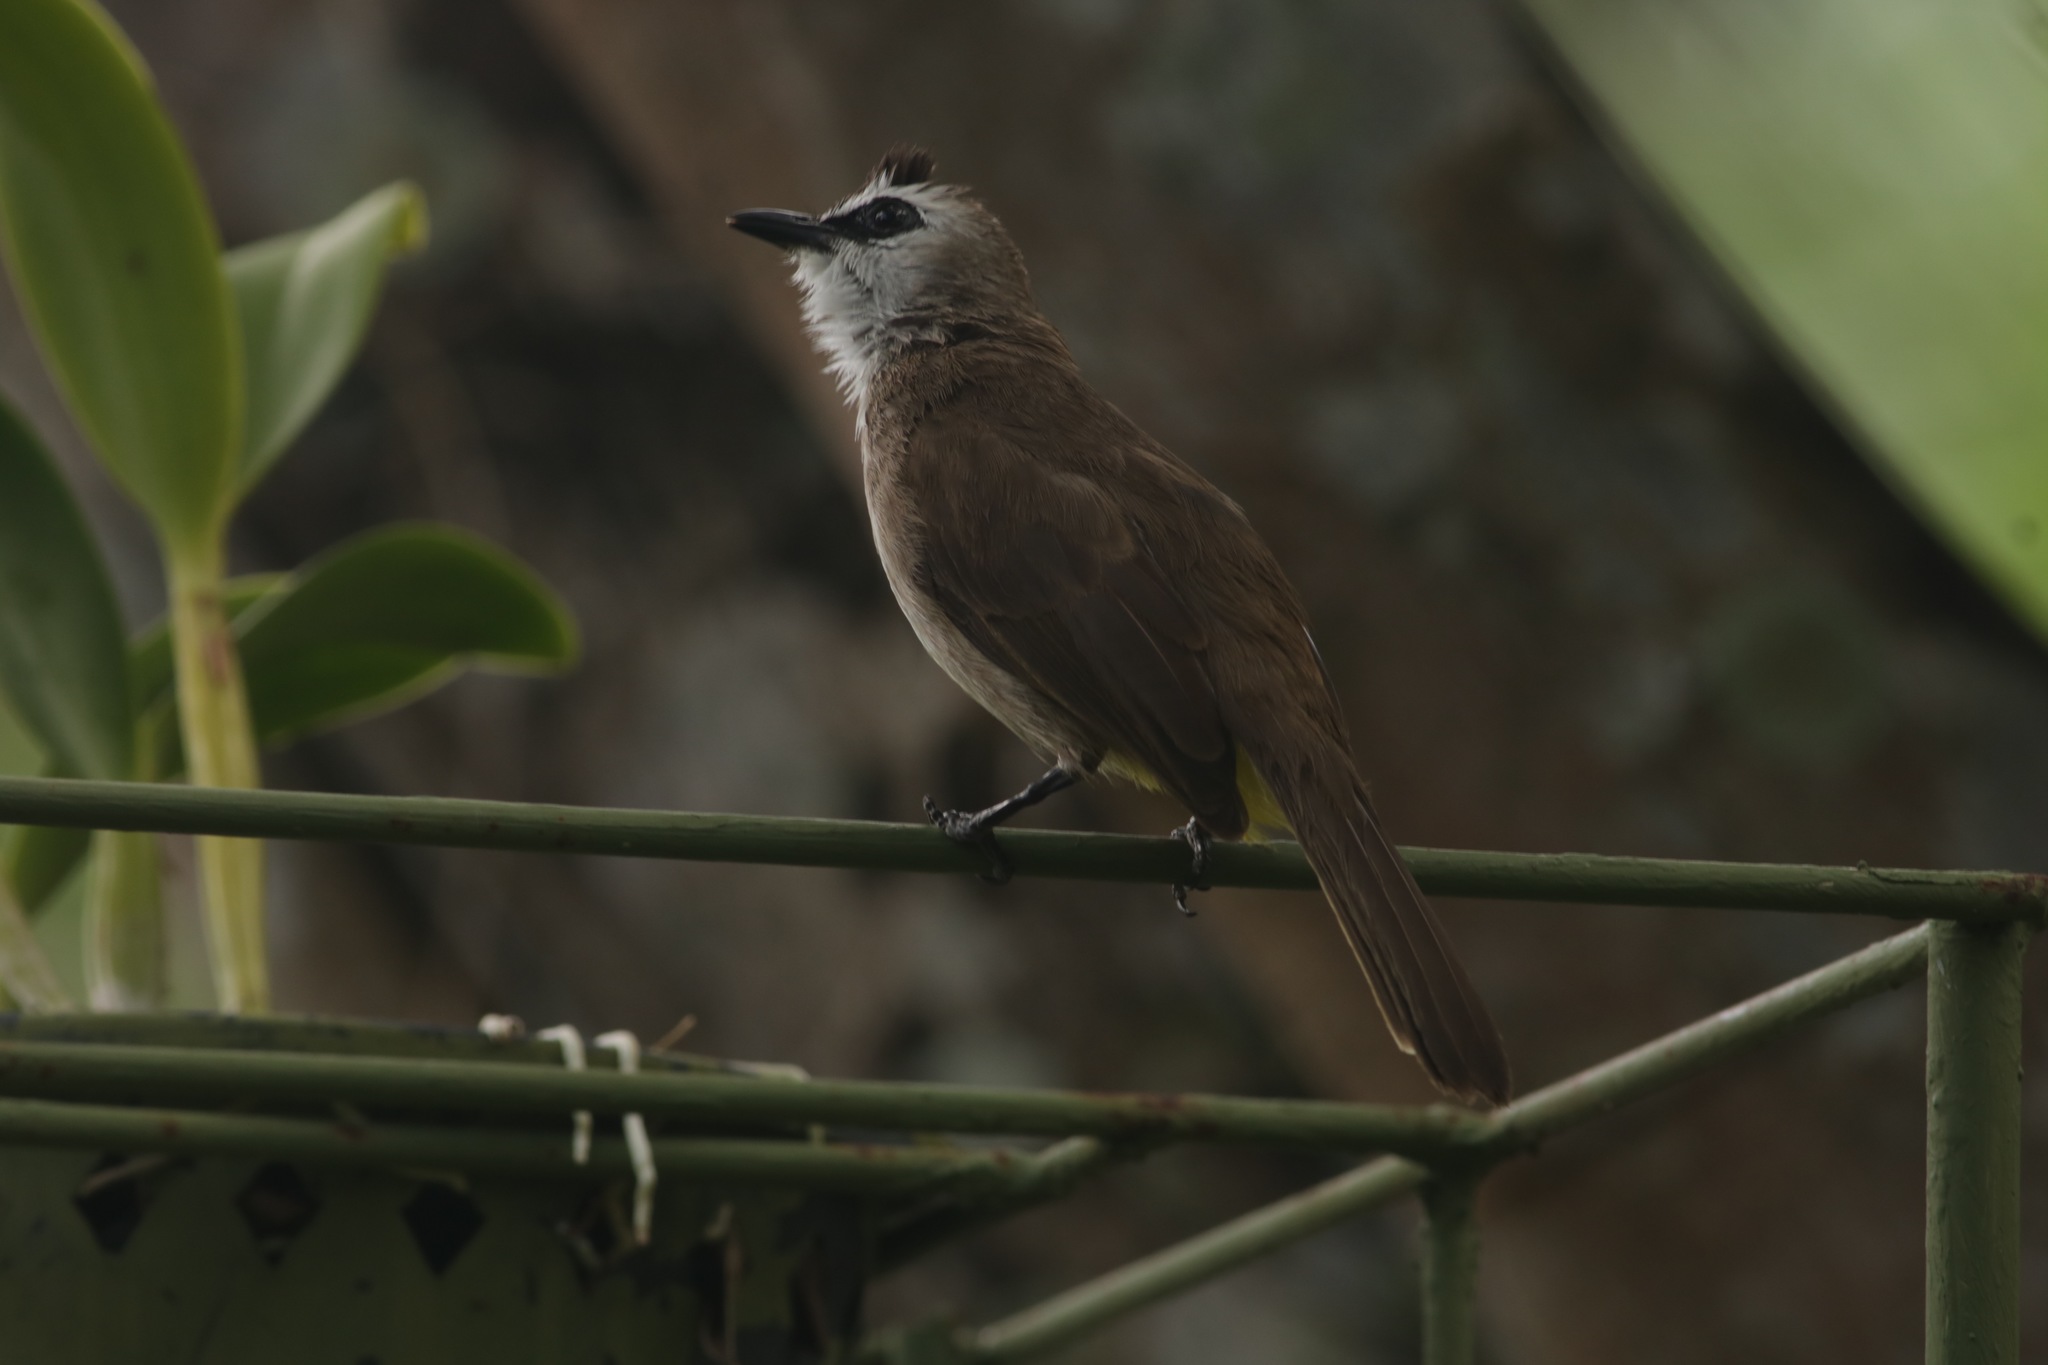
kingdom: Animalia
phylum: Chordata
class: Aves
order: Passeriformes
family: Pycnonotidae
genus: Pycnonotus
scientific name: Pycnonotus goiavier
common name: Yellow-vented bulbul
